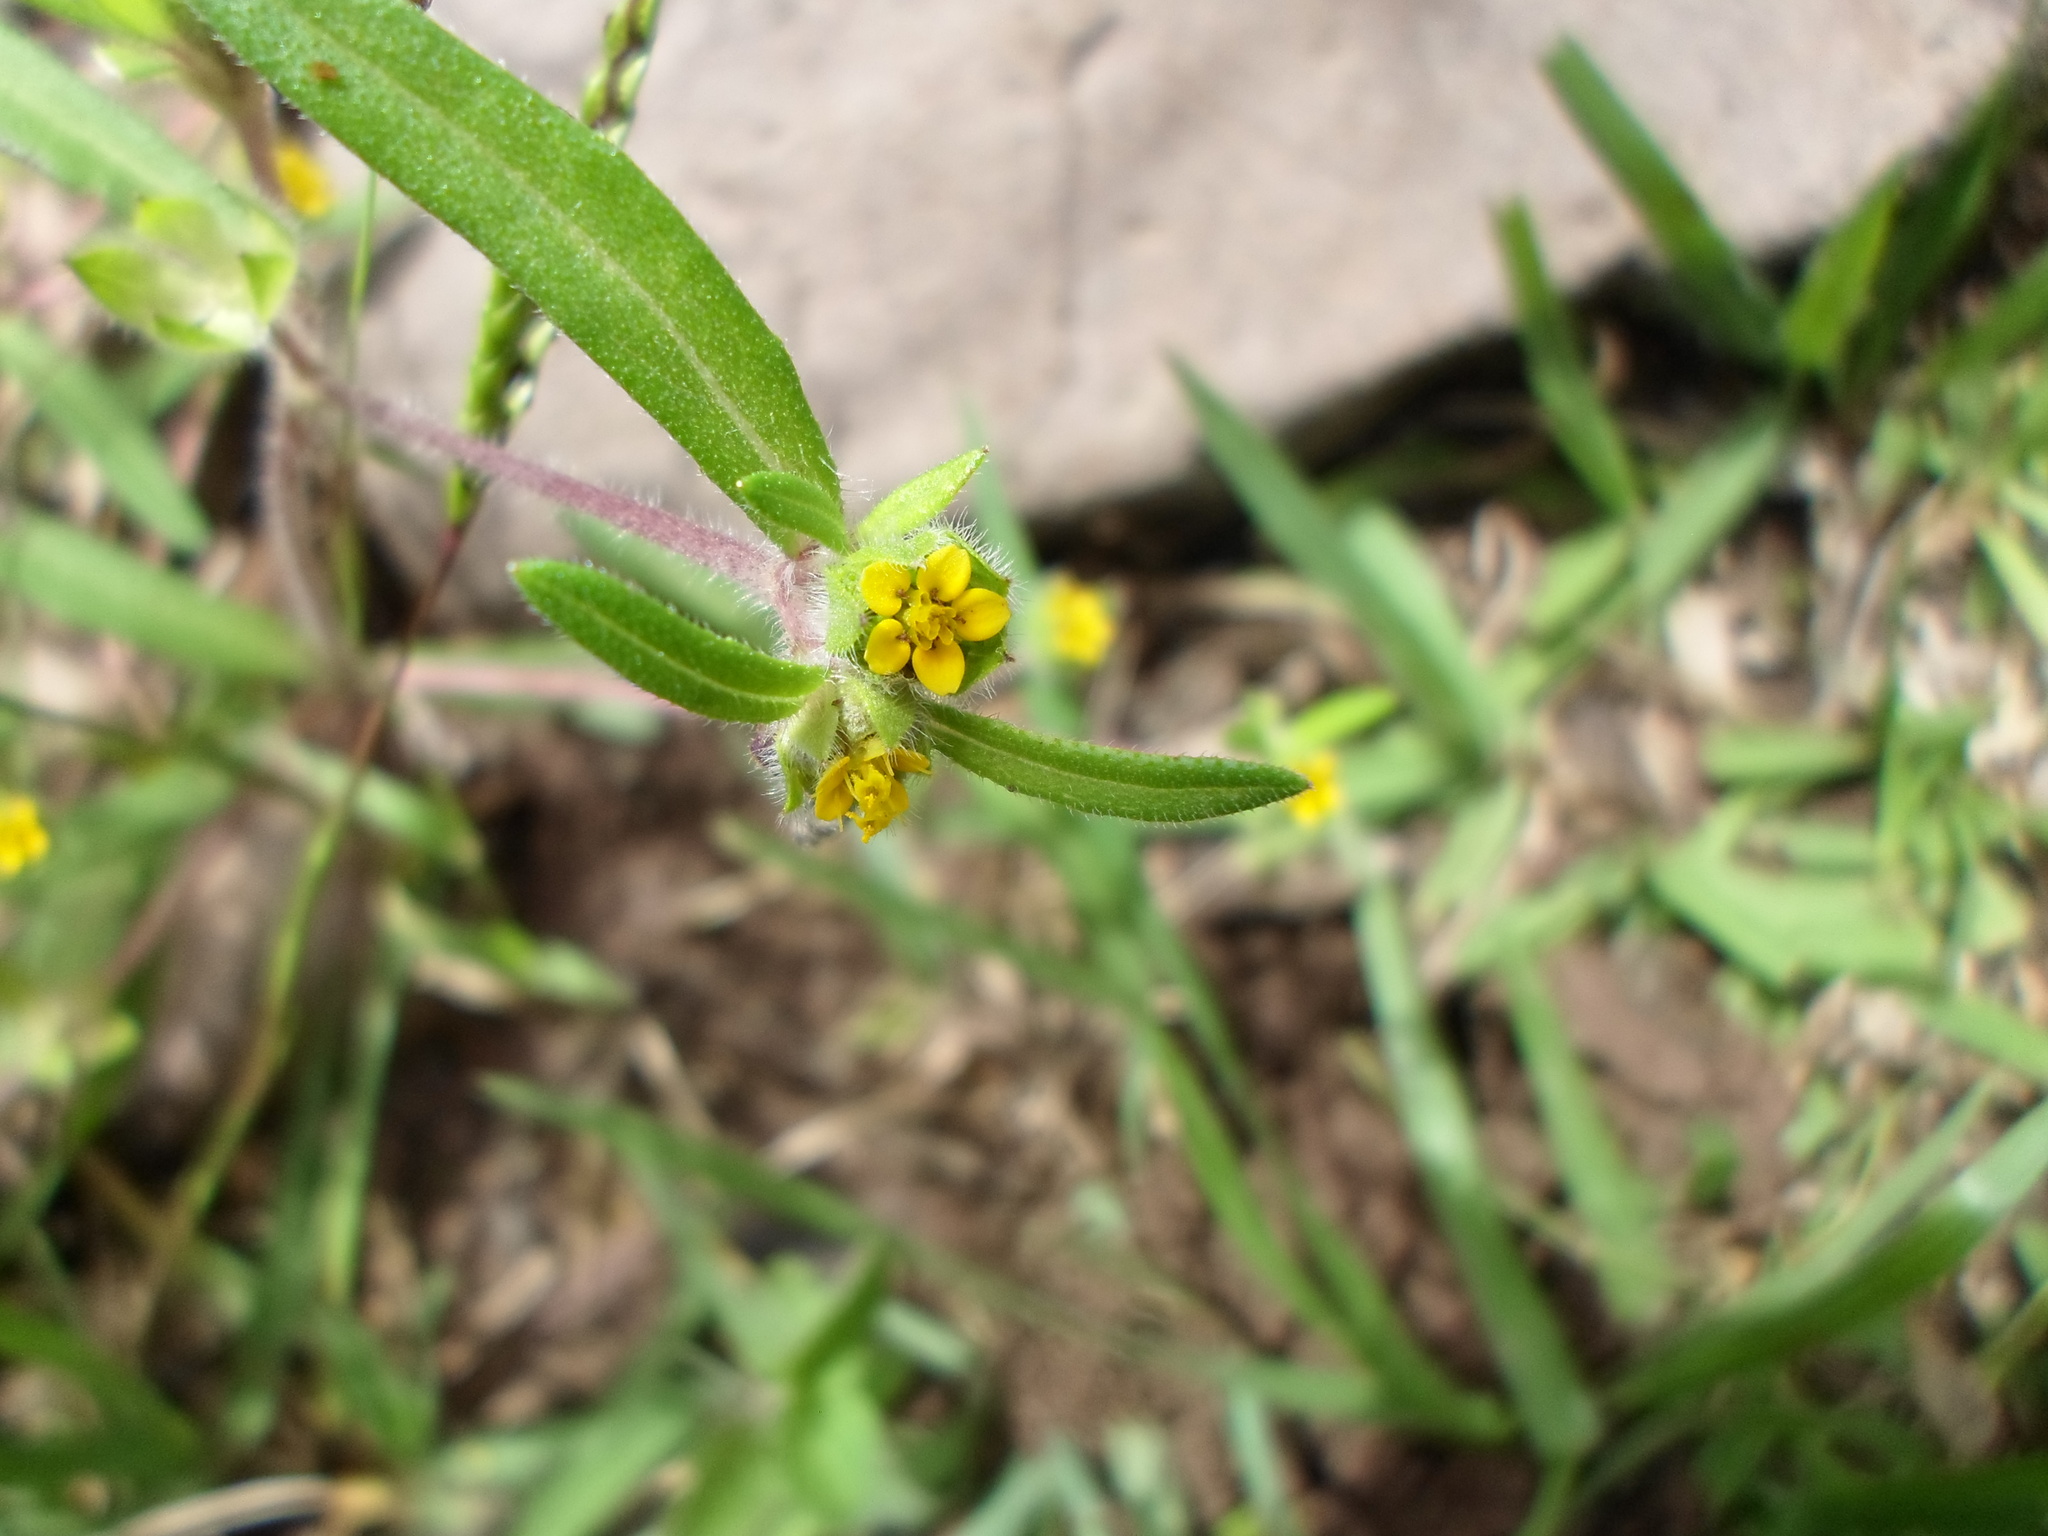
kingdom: Plantae
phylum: Tracheophyta
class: Magnoliopsida
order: Asterales
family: Asteraceae
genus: Melampodium
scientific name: Melampodium sericeum
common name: Rough blackfoot
